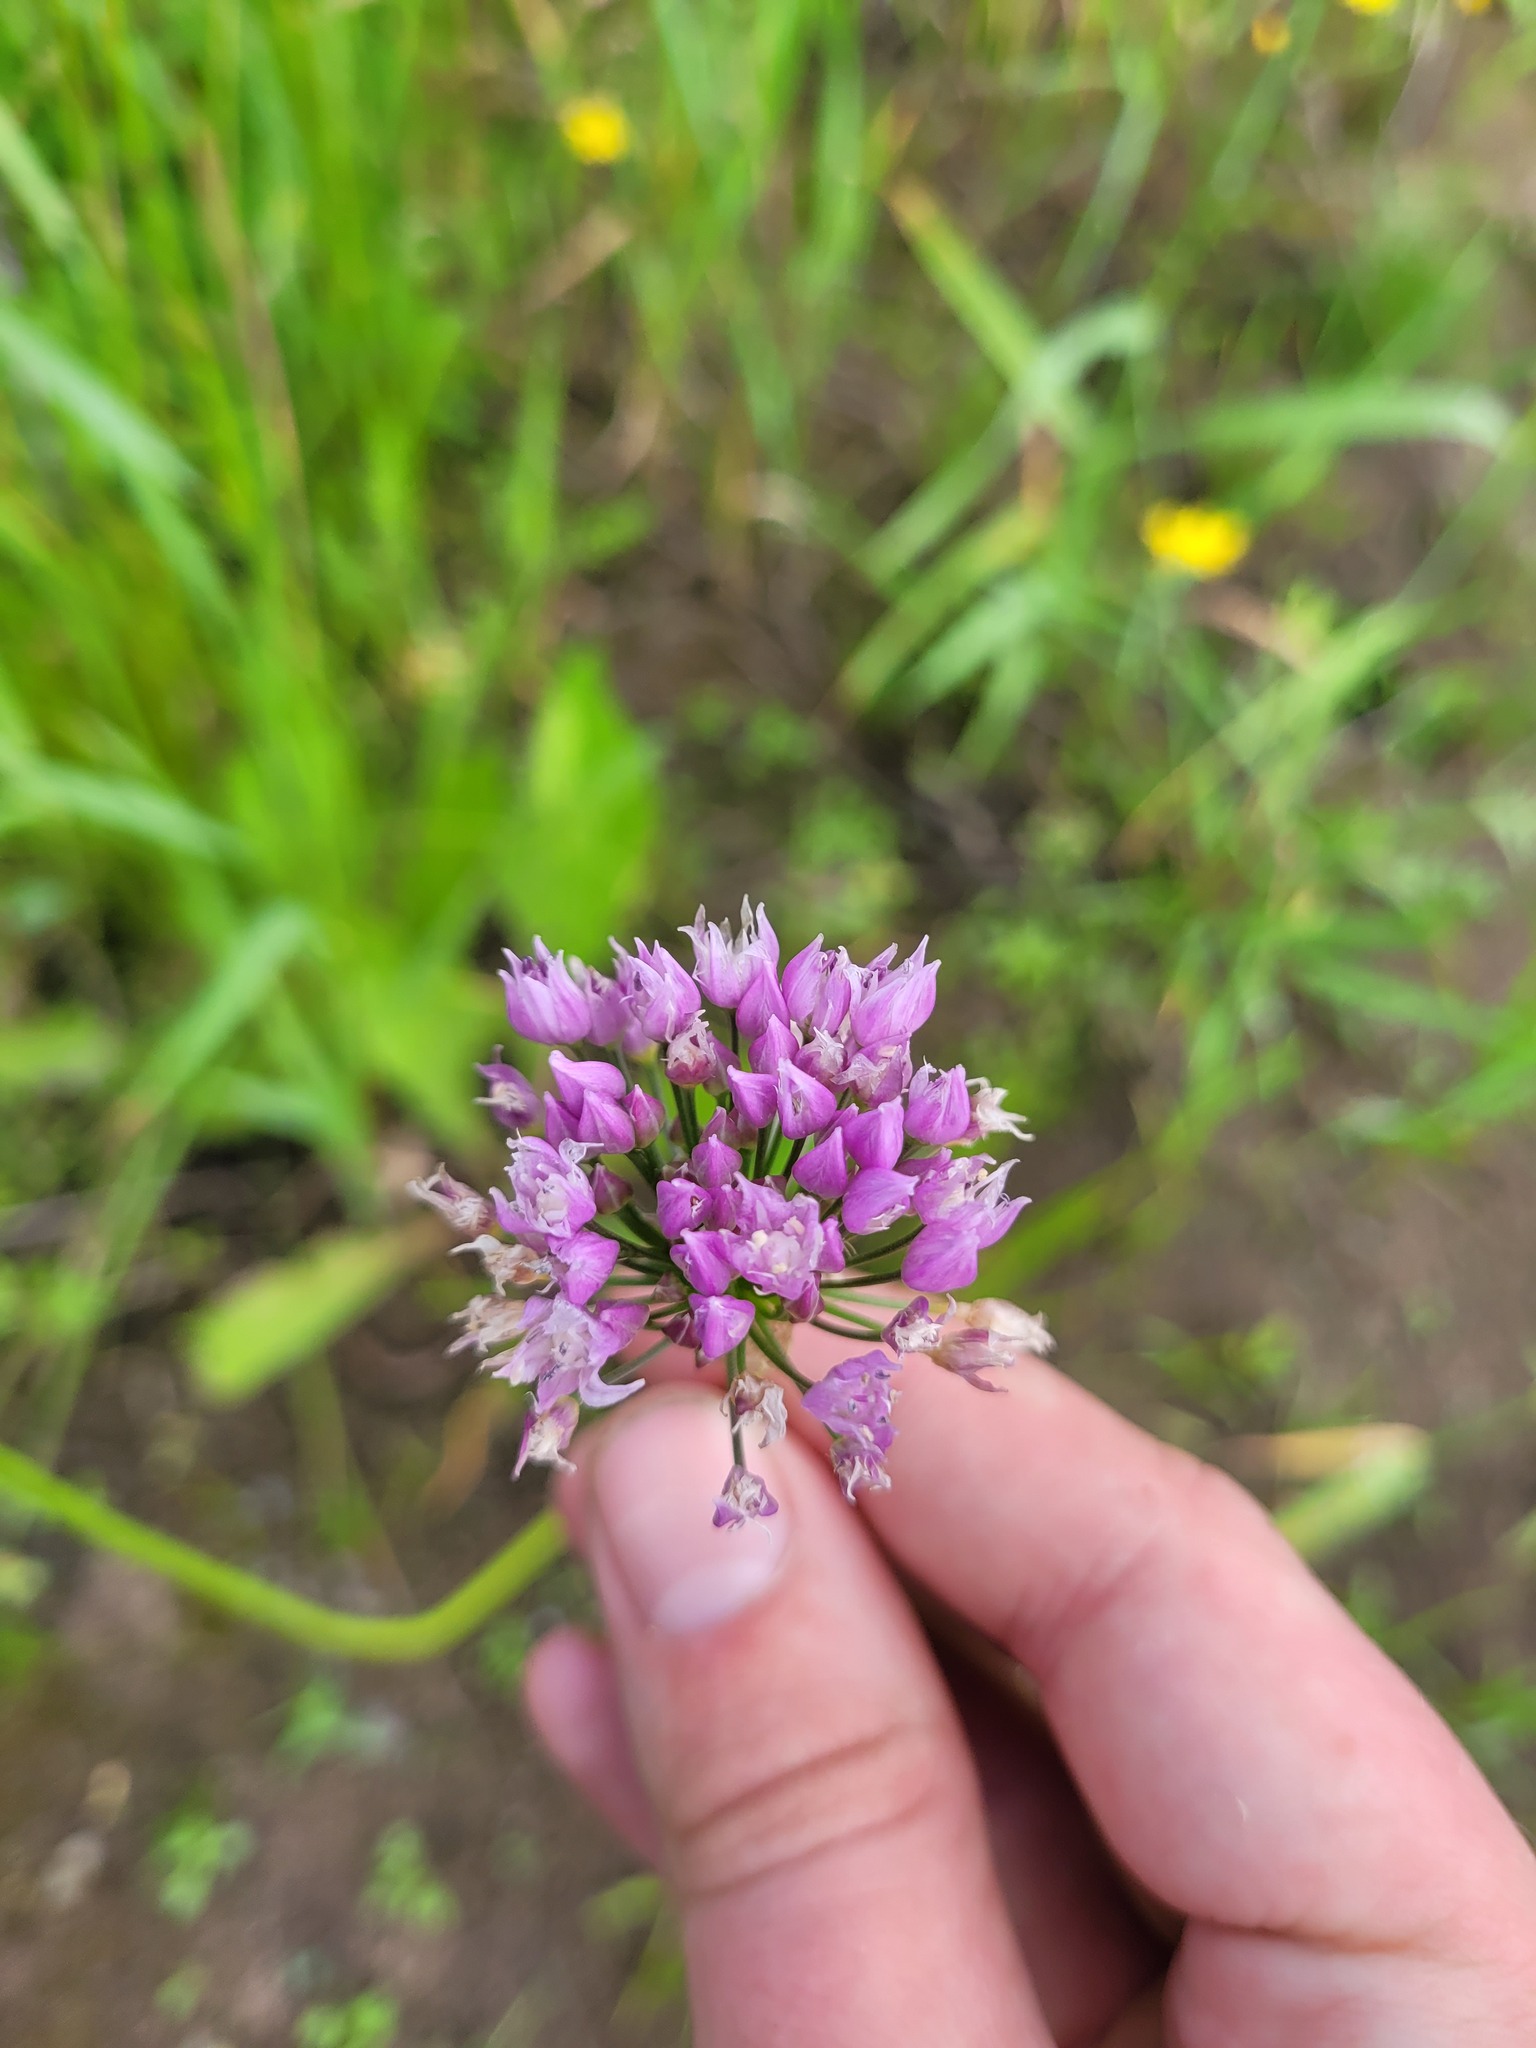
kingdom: Plantae
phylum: Tracheophyta
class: Liliopsida
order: Asparagales
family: Amaryllidaceae
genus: Allium
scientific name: Allium angulosum
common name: Mouse garlic
